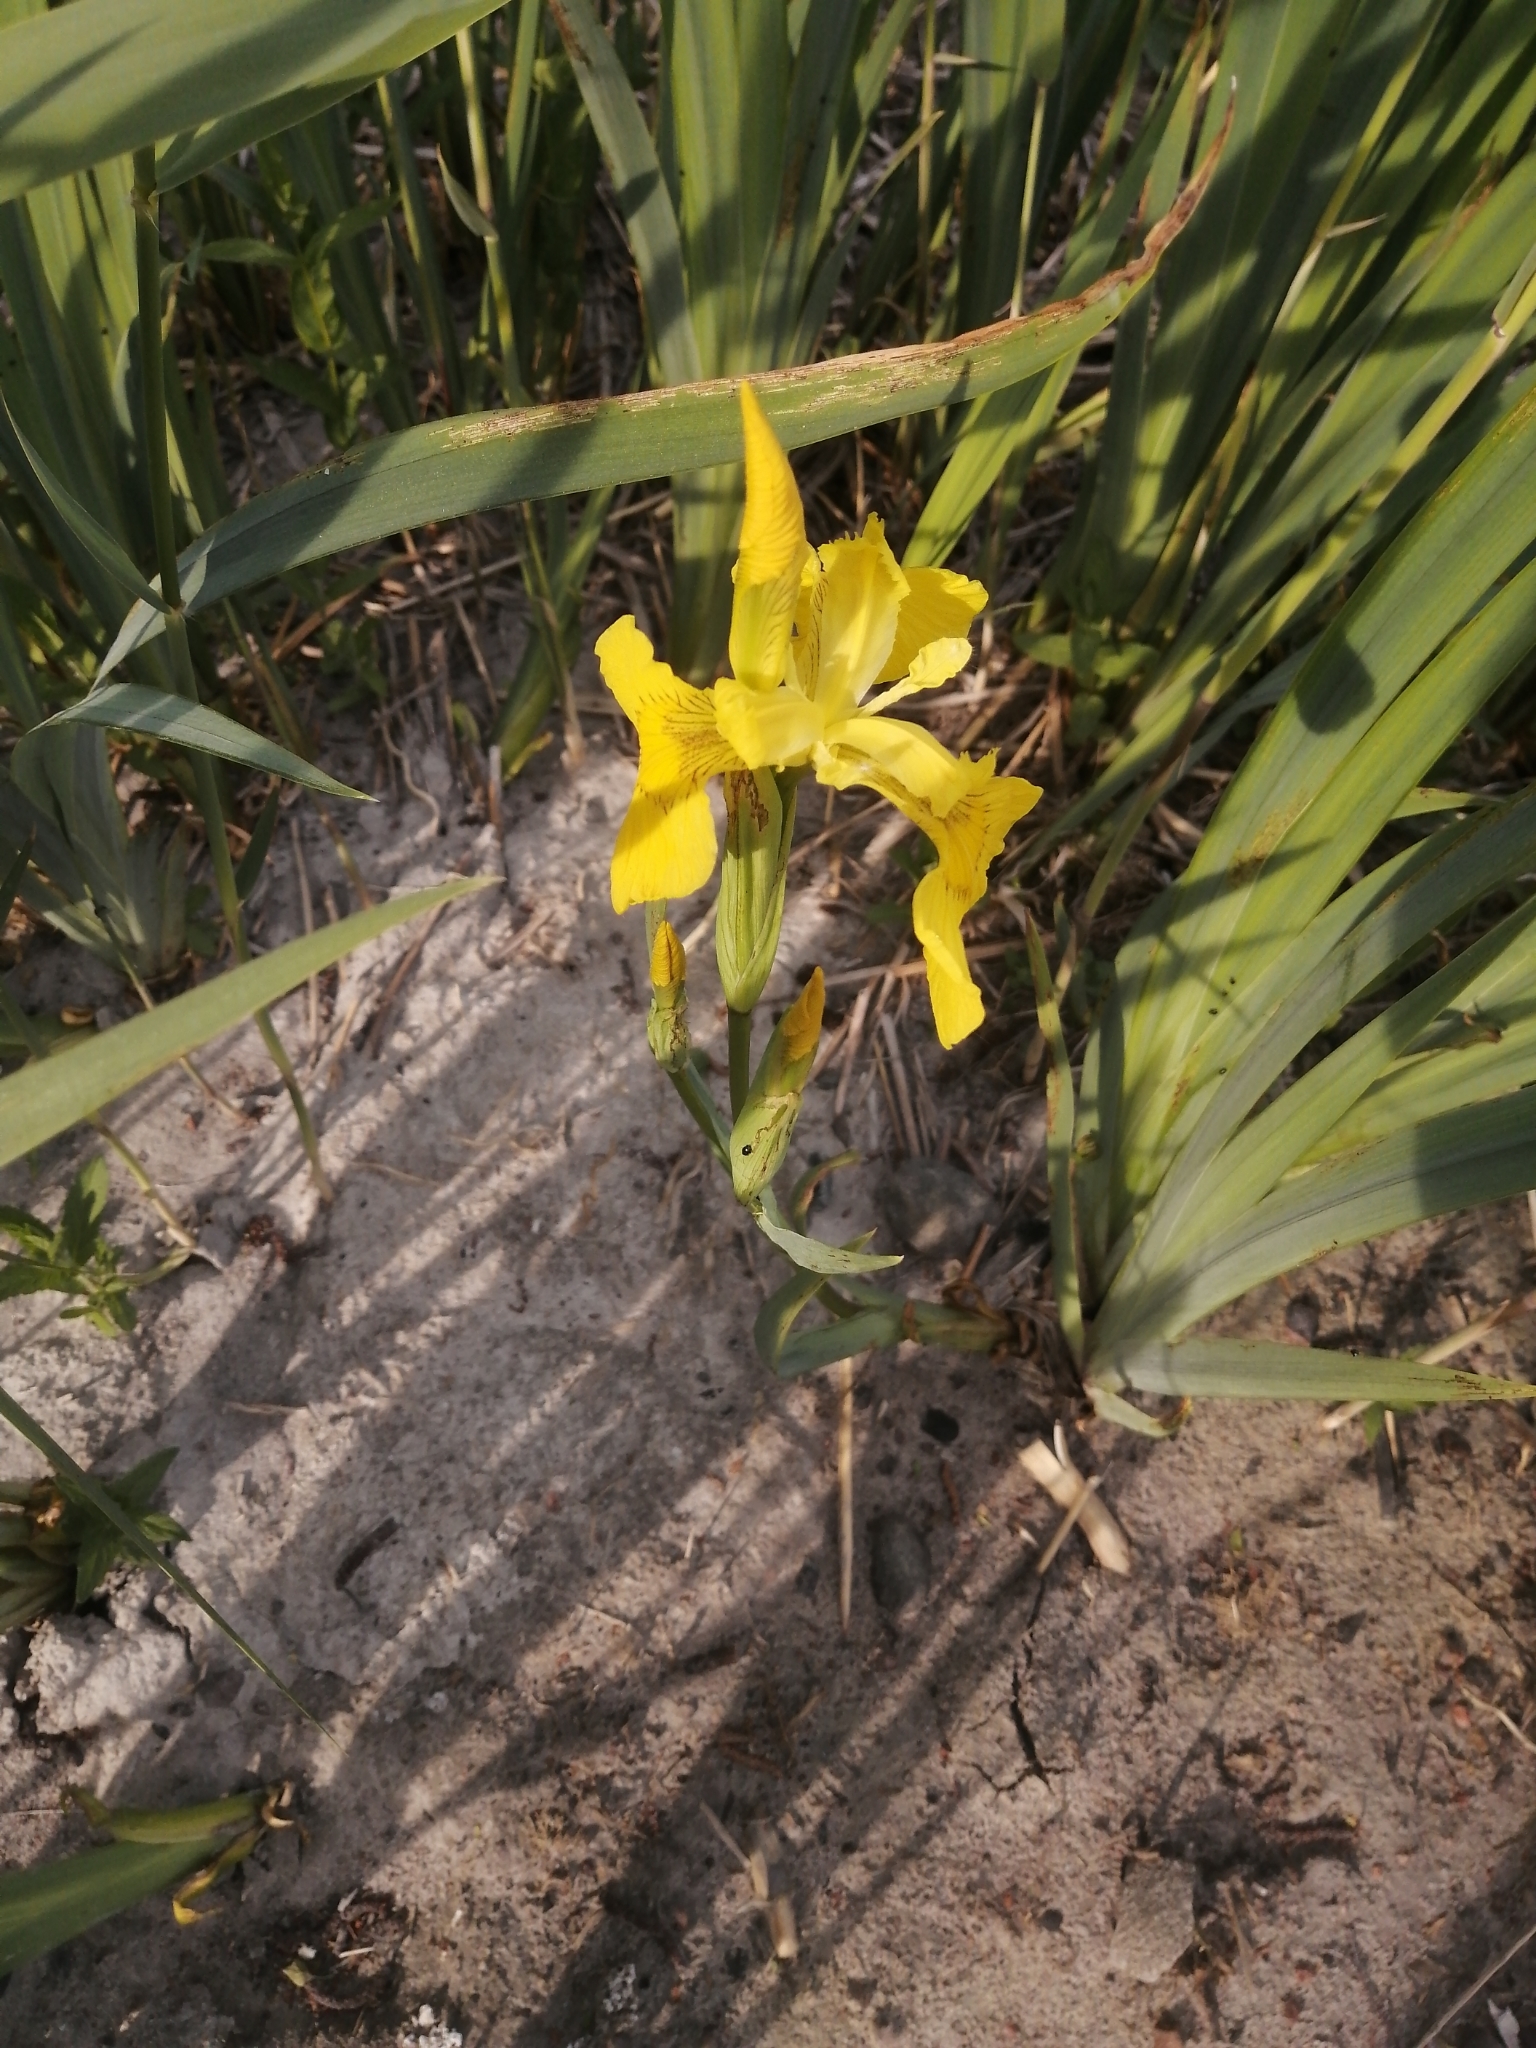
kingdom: Plantae
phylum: Tracheophyta
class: Liliopsida
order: Asparagales
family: Iridaceae
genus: Iris
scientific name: Iris pseudacorus
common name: Yellow flag
